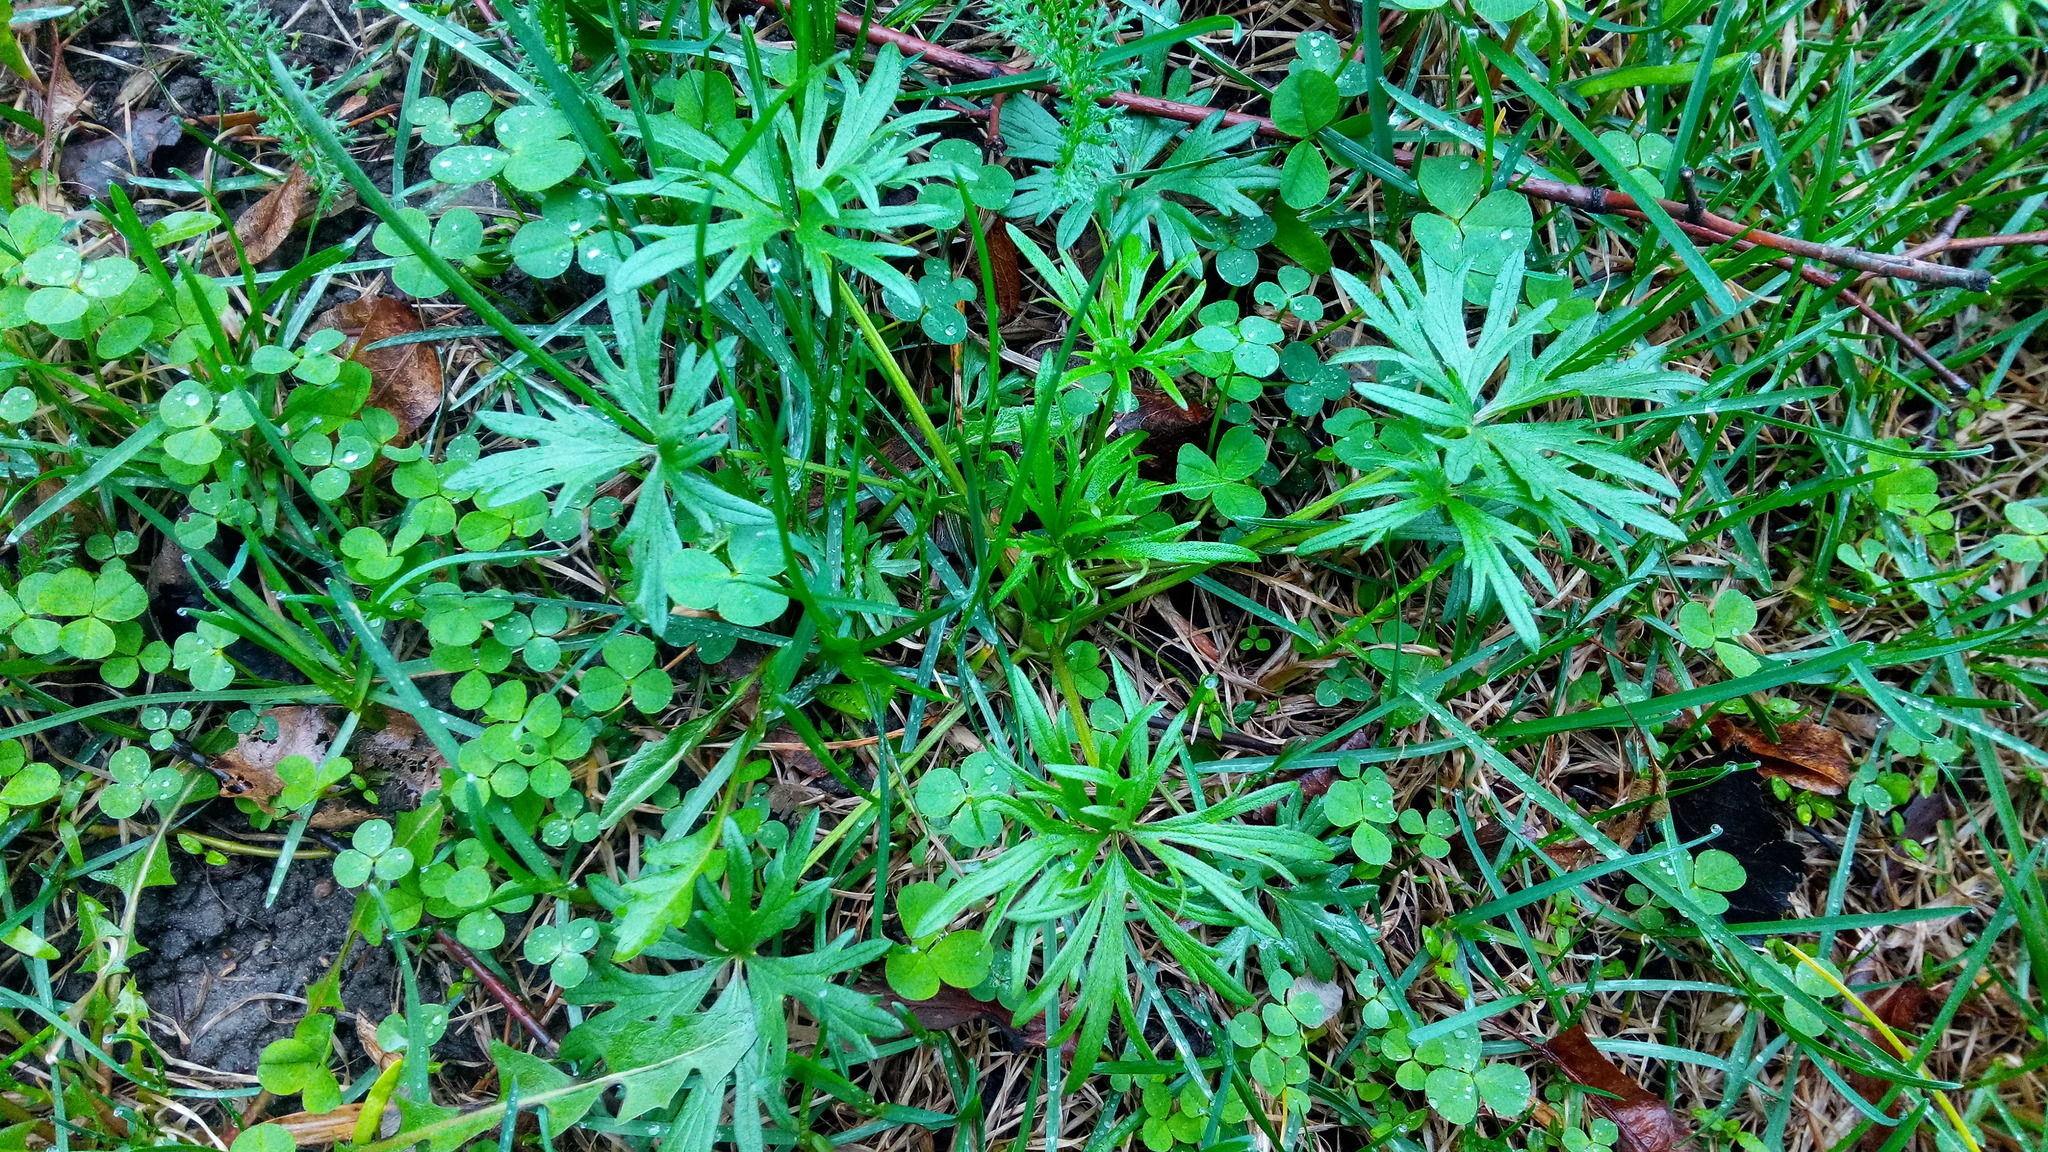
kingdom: Plantae
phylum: Tracheophyta
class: Magnoliopsida
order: Ranunculales
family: Ranunculaceae
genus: Ranunculus
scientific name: Ranunculus acris
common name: Meadow buttercup
